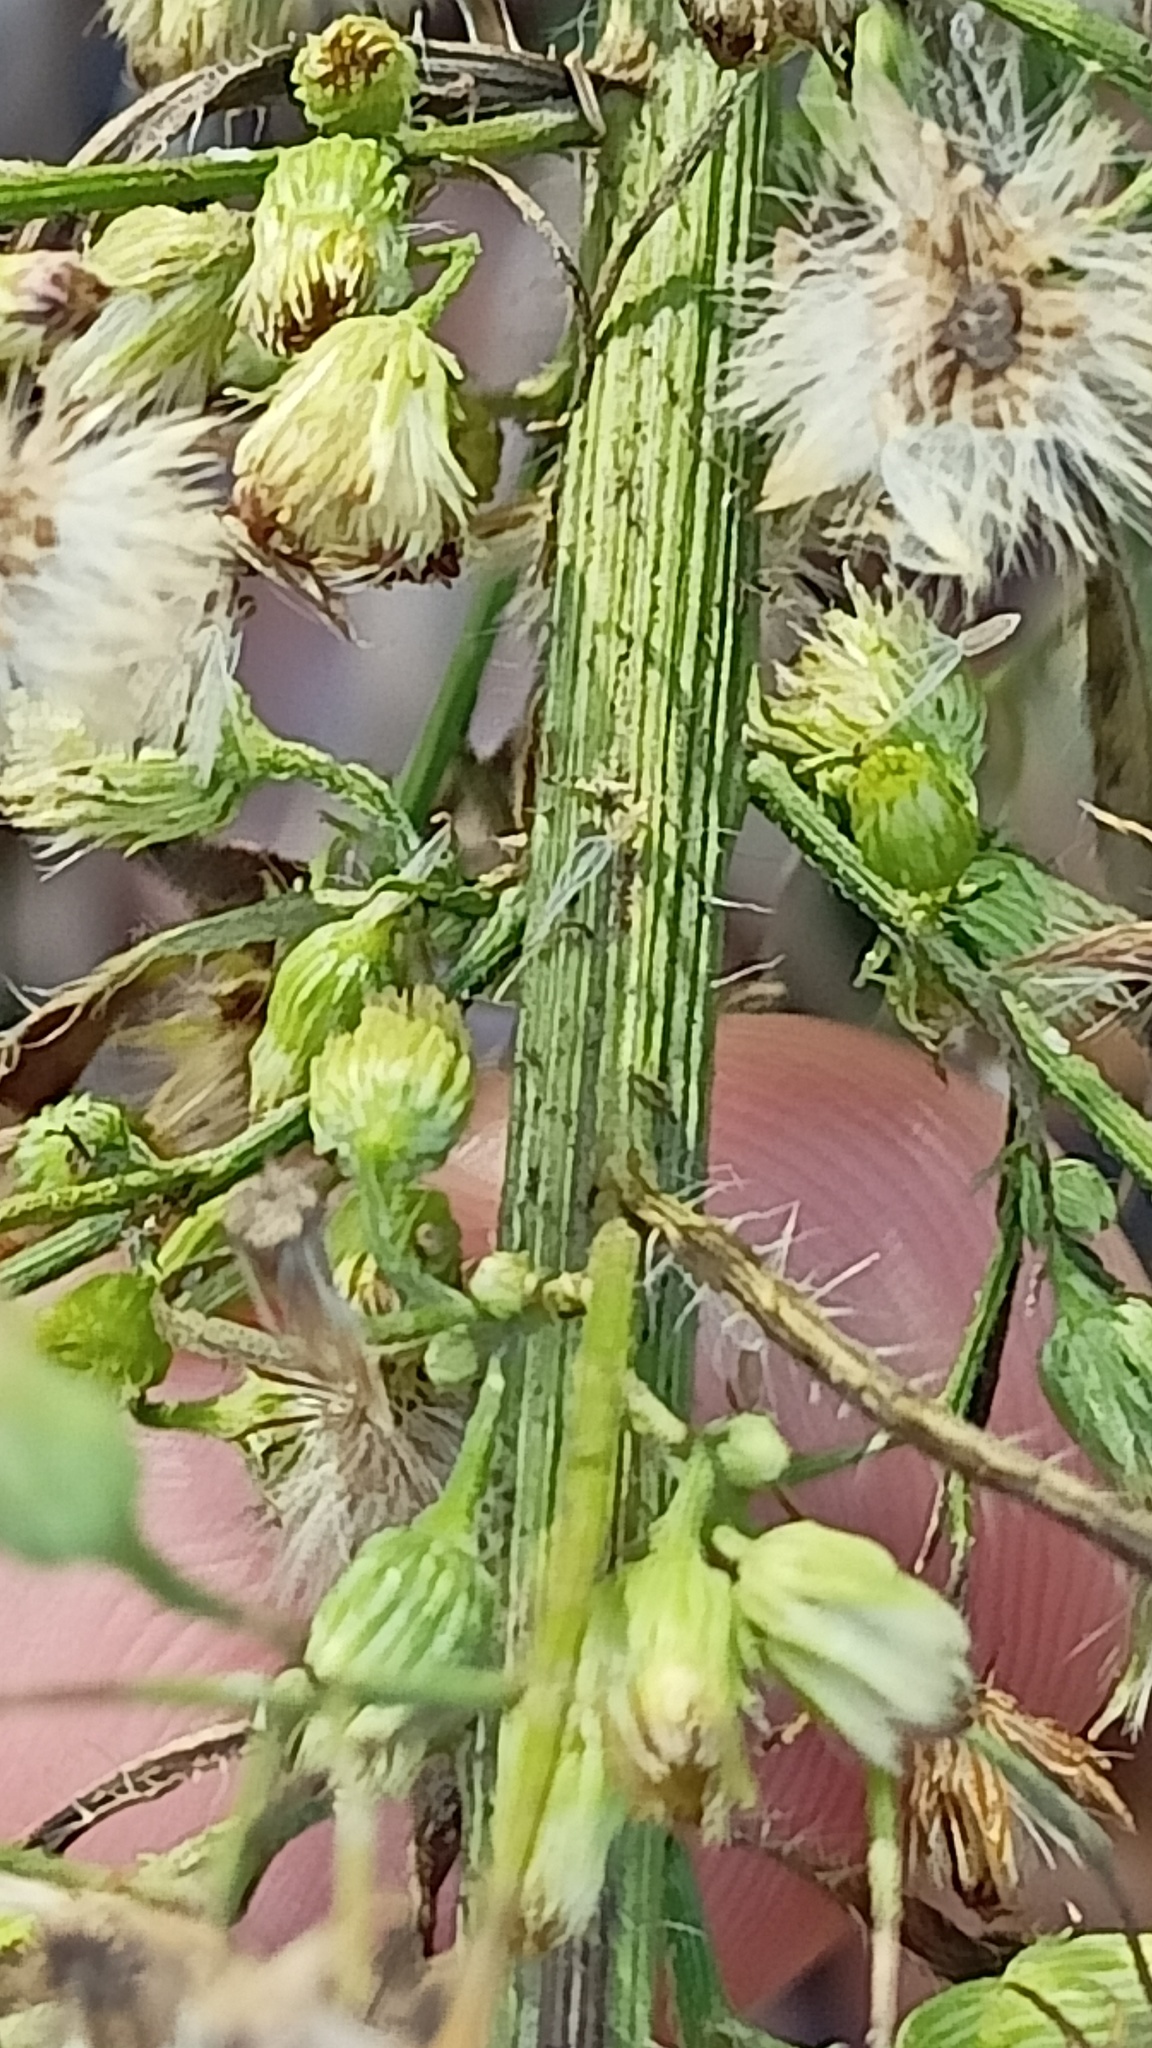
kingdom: Plantae
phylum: Tracheophyta
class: Magnoliopsida
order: Asterales
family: Asteraceae
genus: Erigeron
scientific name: Erigeron canadensis
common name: Canadian fleabane
